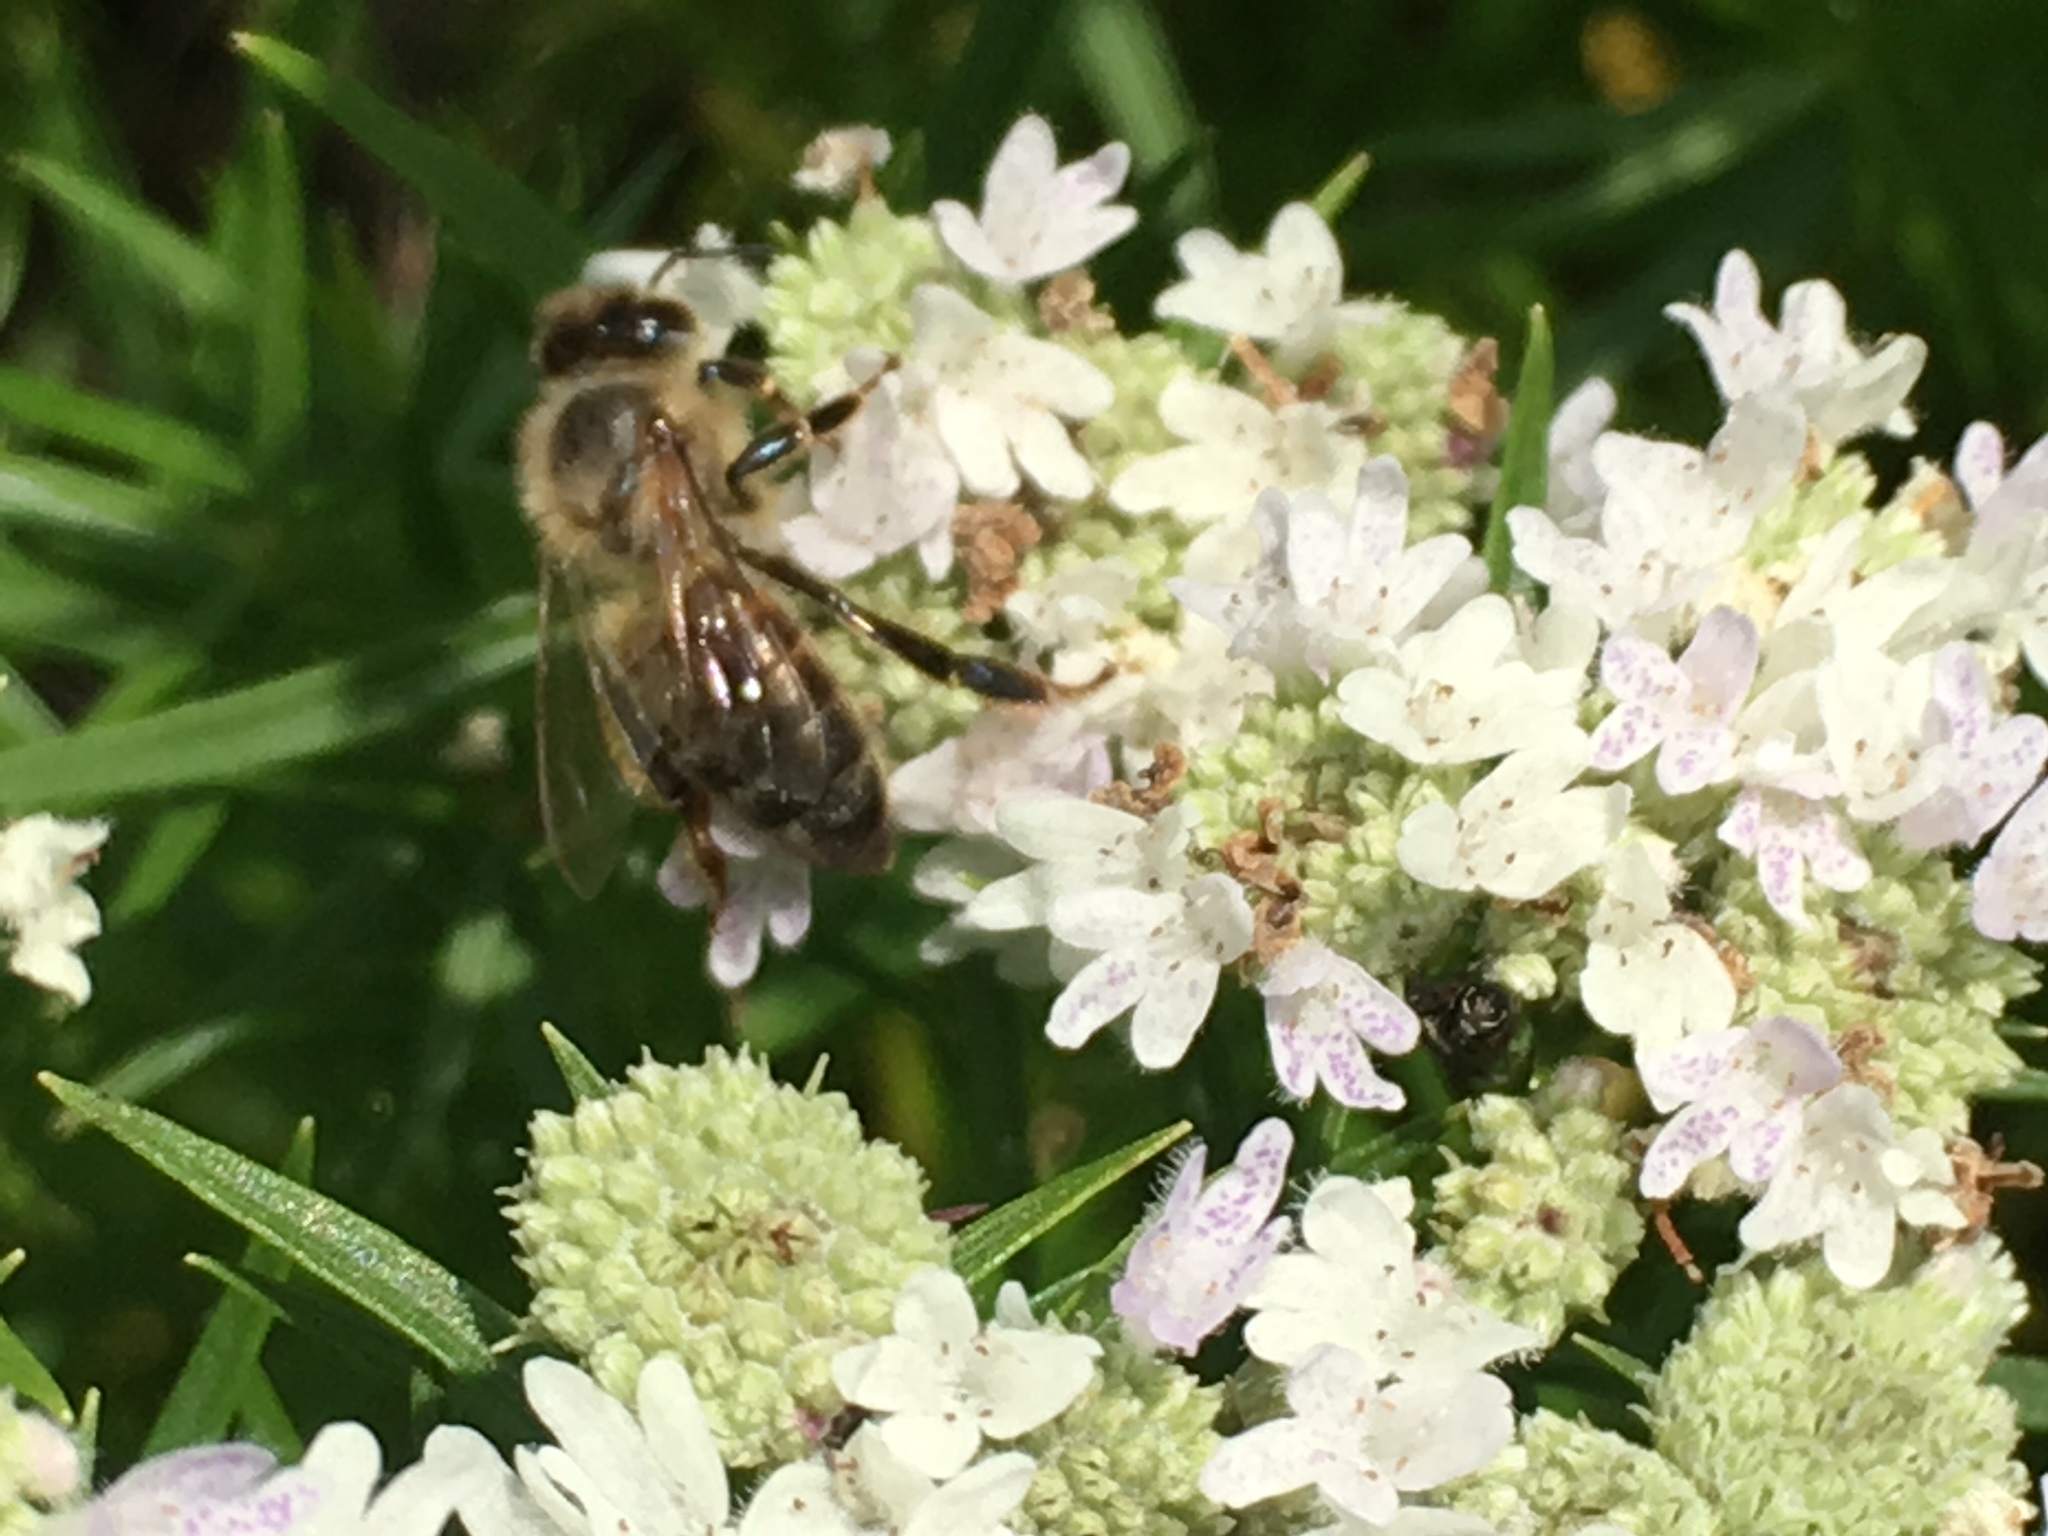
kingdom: Animalia
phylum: Arthropoda
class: Insecta
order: Hymenoptera
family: Apidae
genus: Apis
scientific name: Apis mellifera
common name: Honey bee
